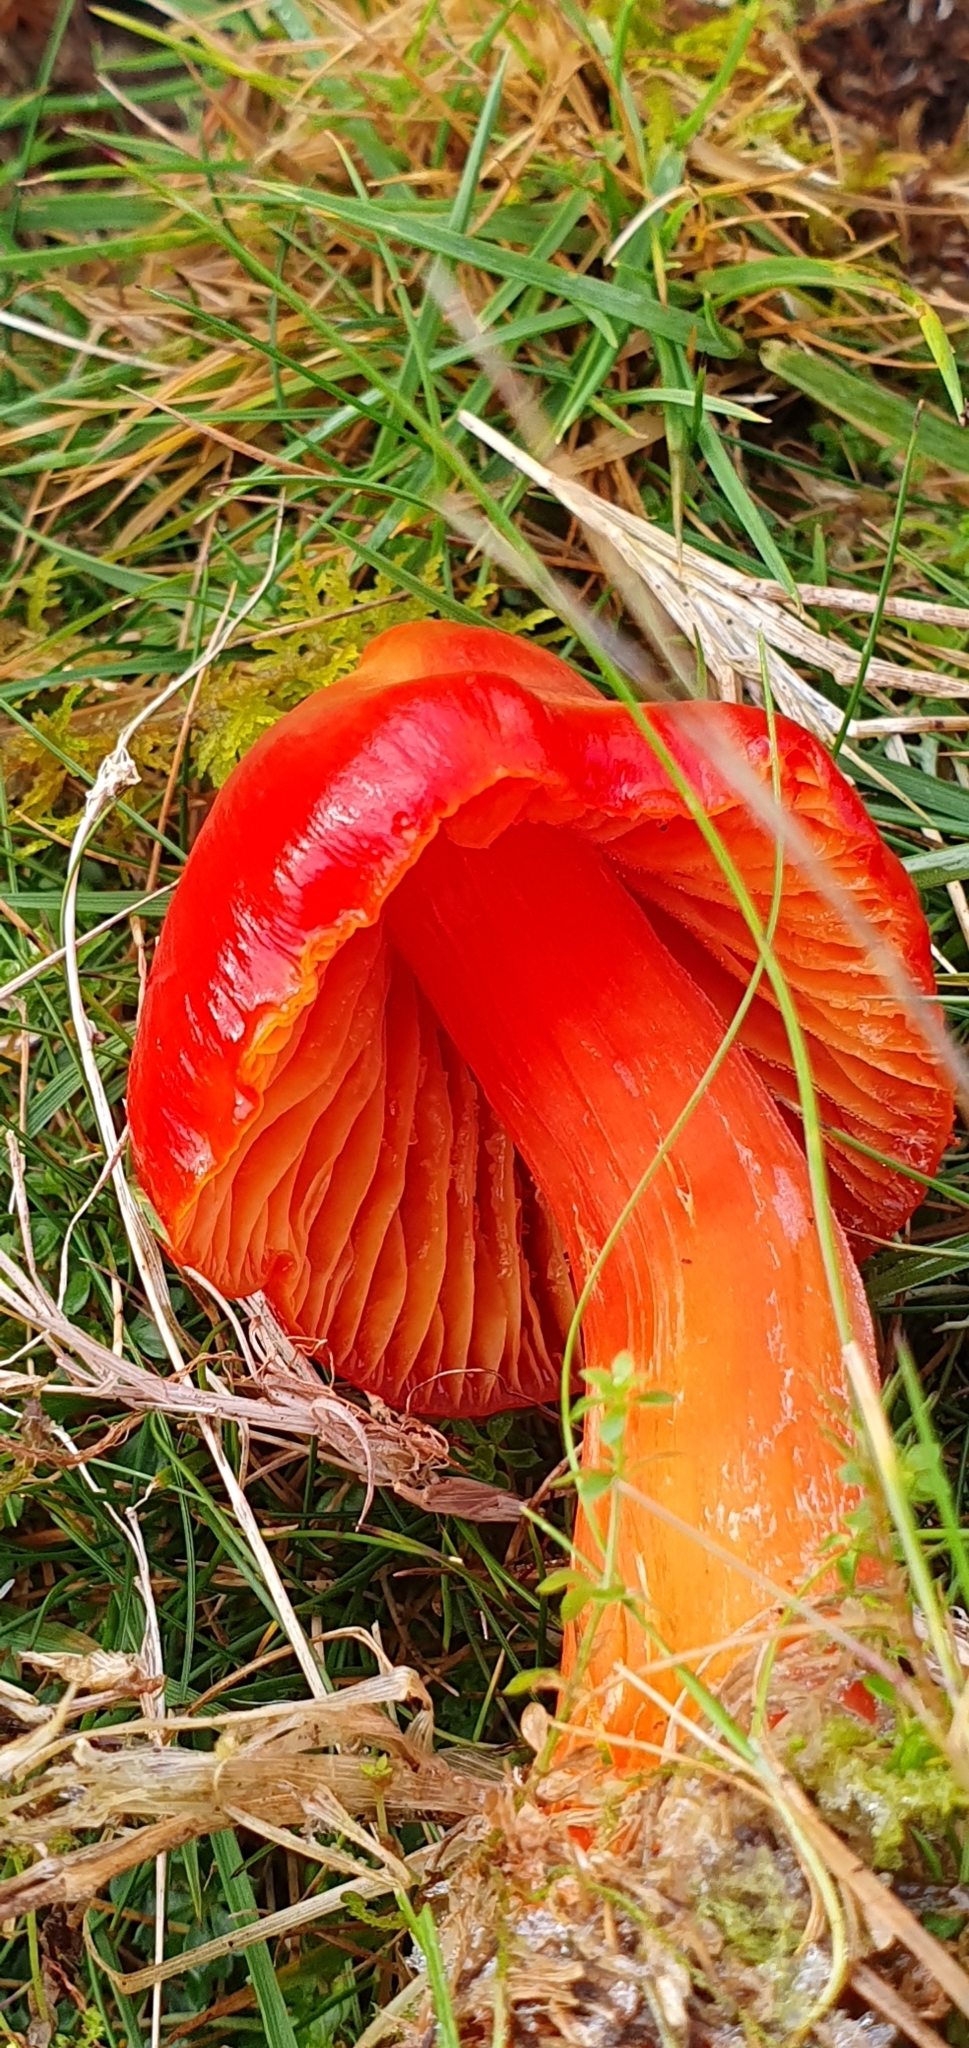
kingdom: Fungi
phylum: Basidiomycota
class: Agaricomycetes
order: Agaricales
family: Hygrophoraceae
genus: Hygrocybe
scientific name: Hygrocybe punicea
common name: Crimson waxcap
